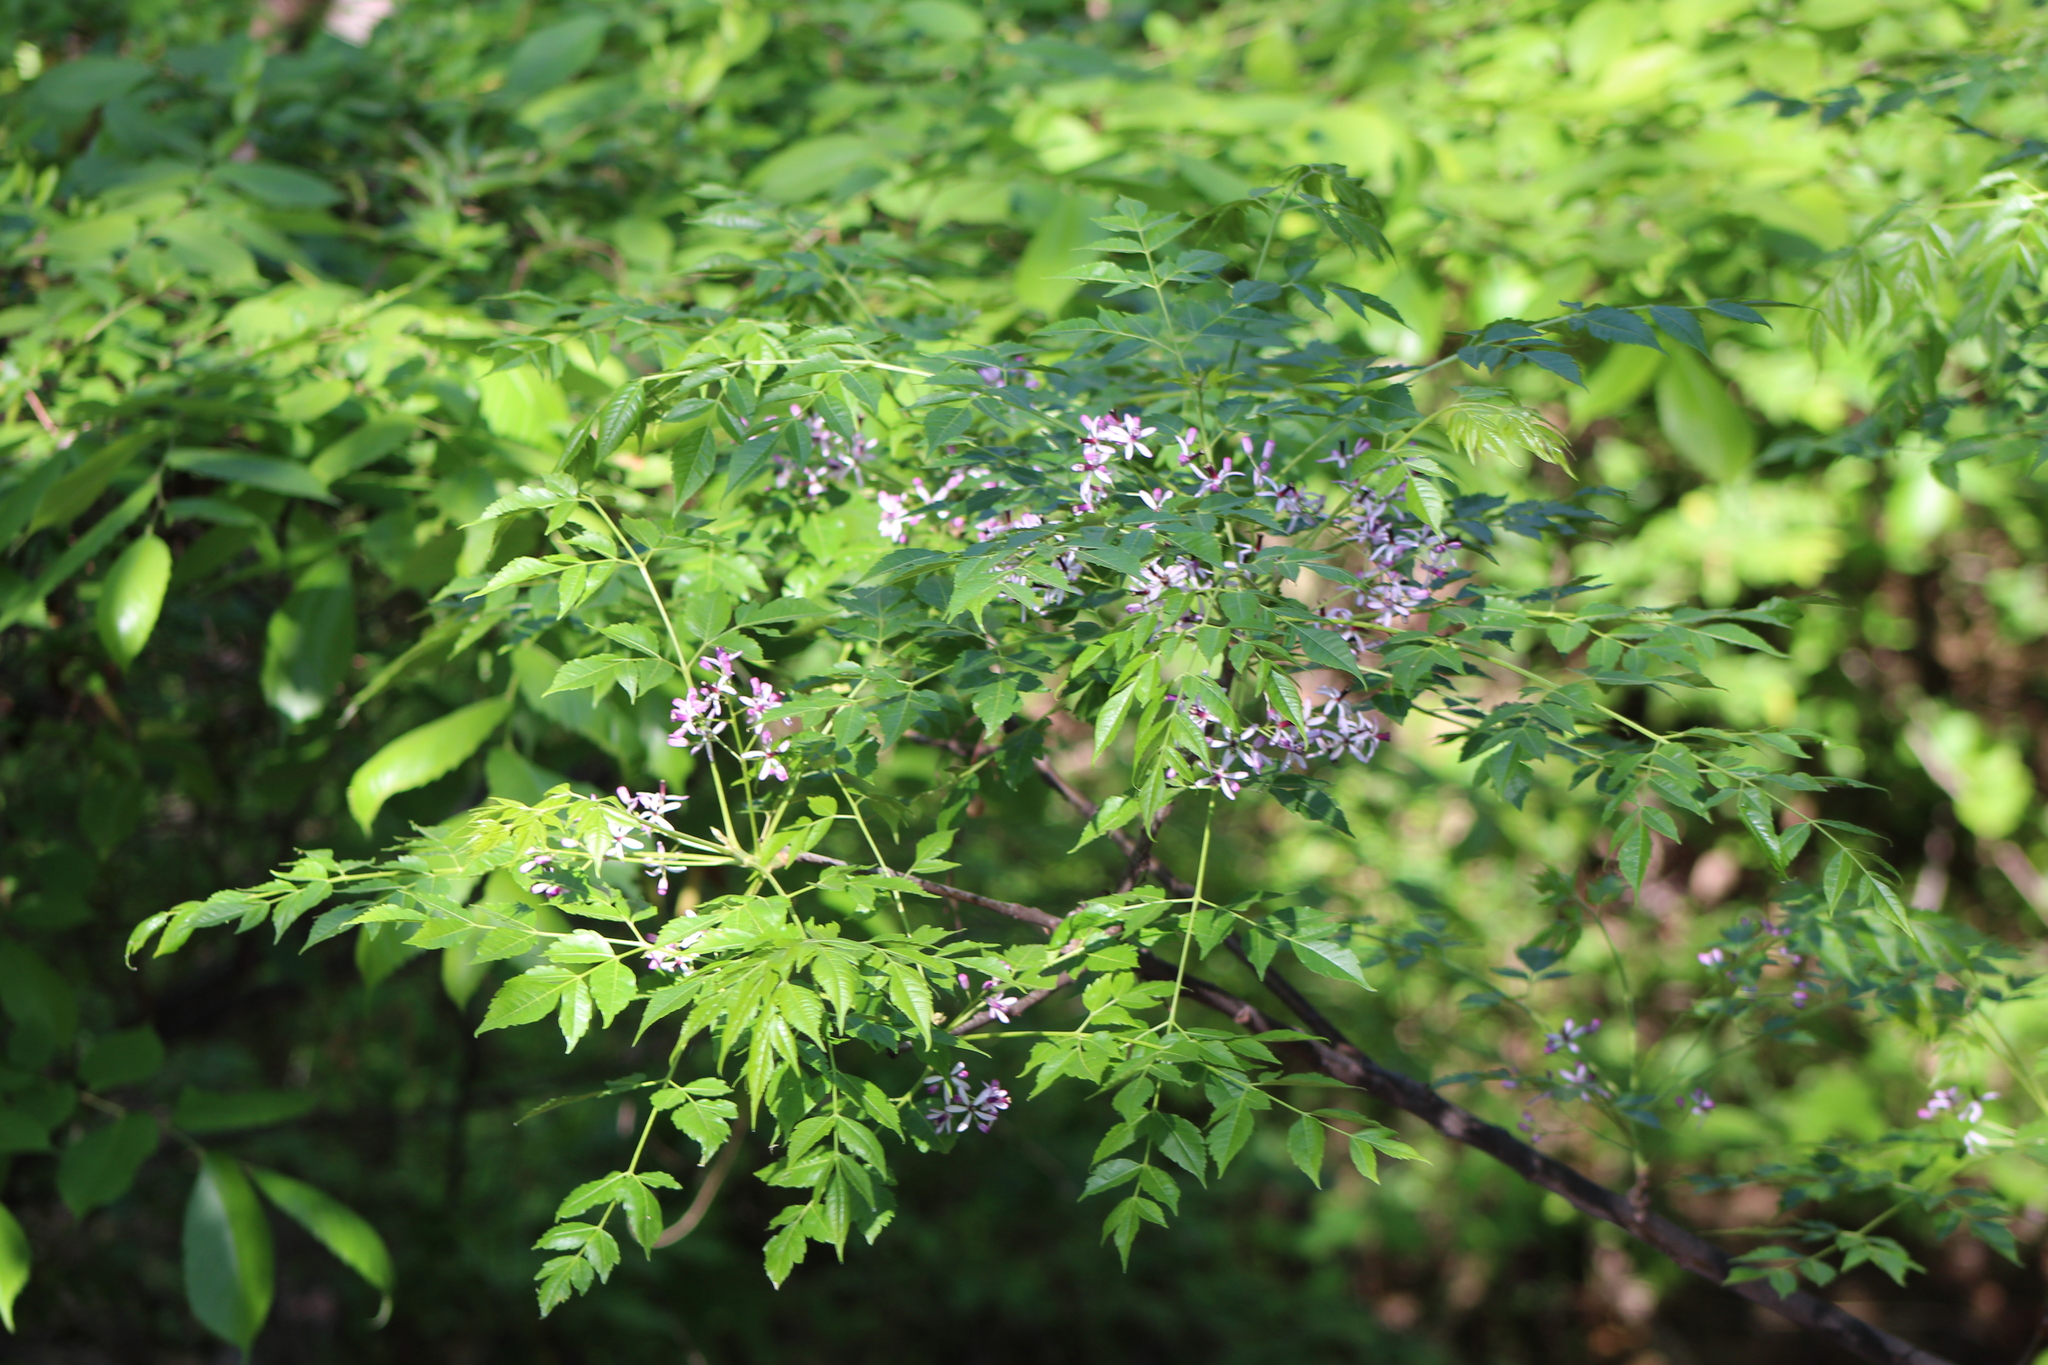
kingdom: Plantae
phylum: Tracheophyta
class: Magnoliopsida
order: Sapindales
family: Meliaceae
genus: Melia
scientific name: Melia azedarach
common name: Chinaberrytree
